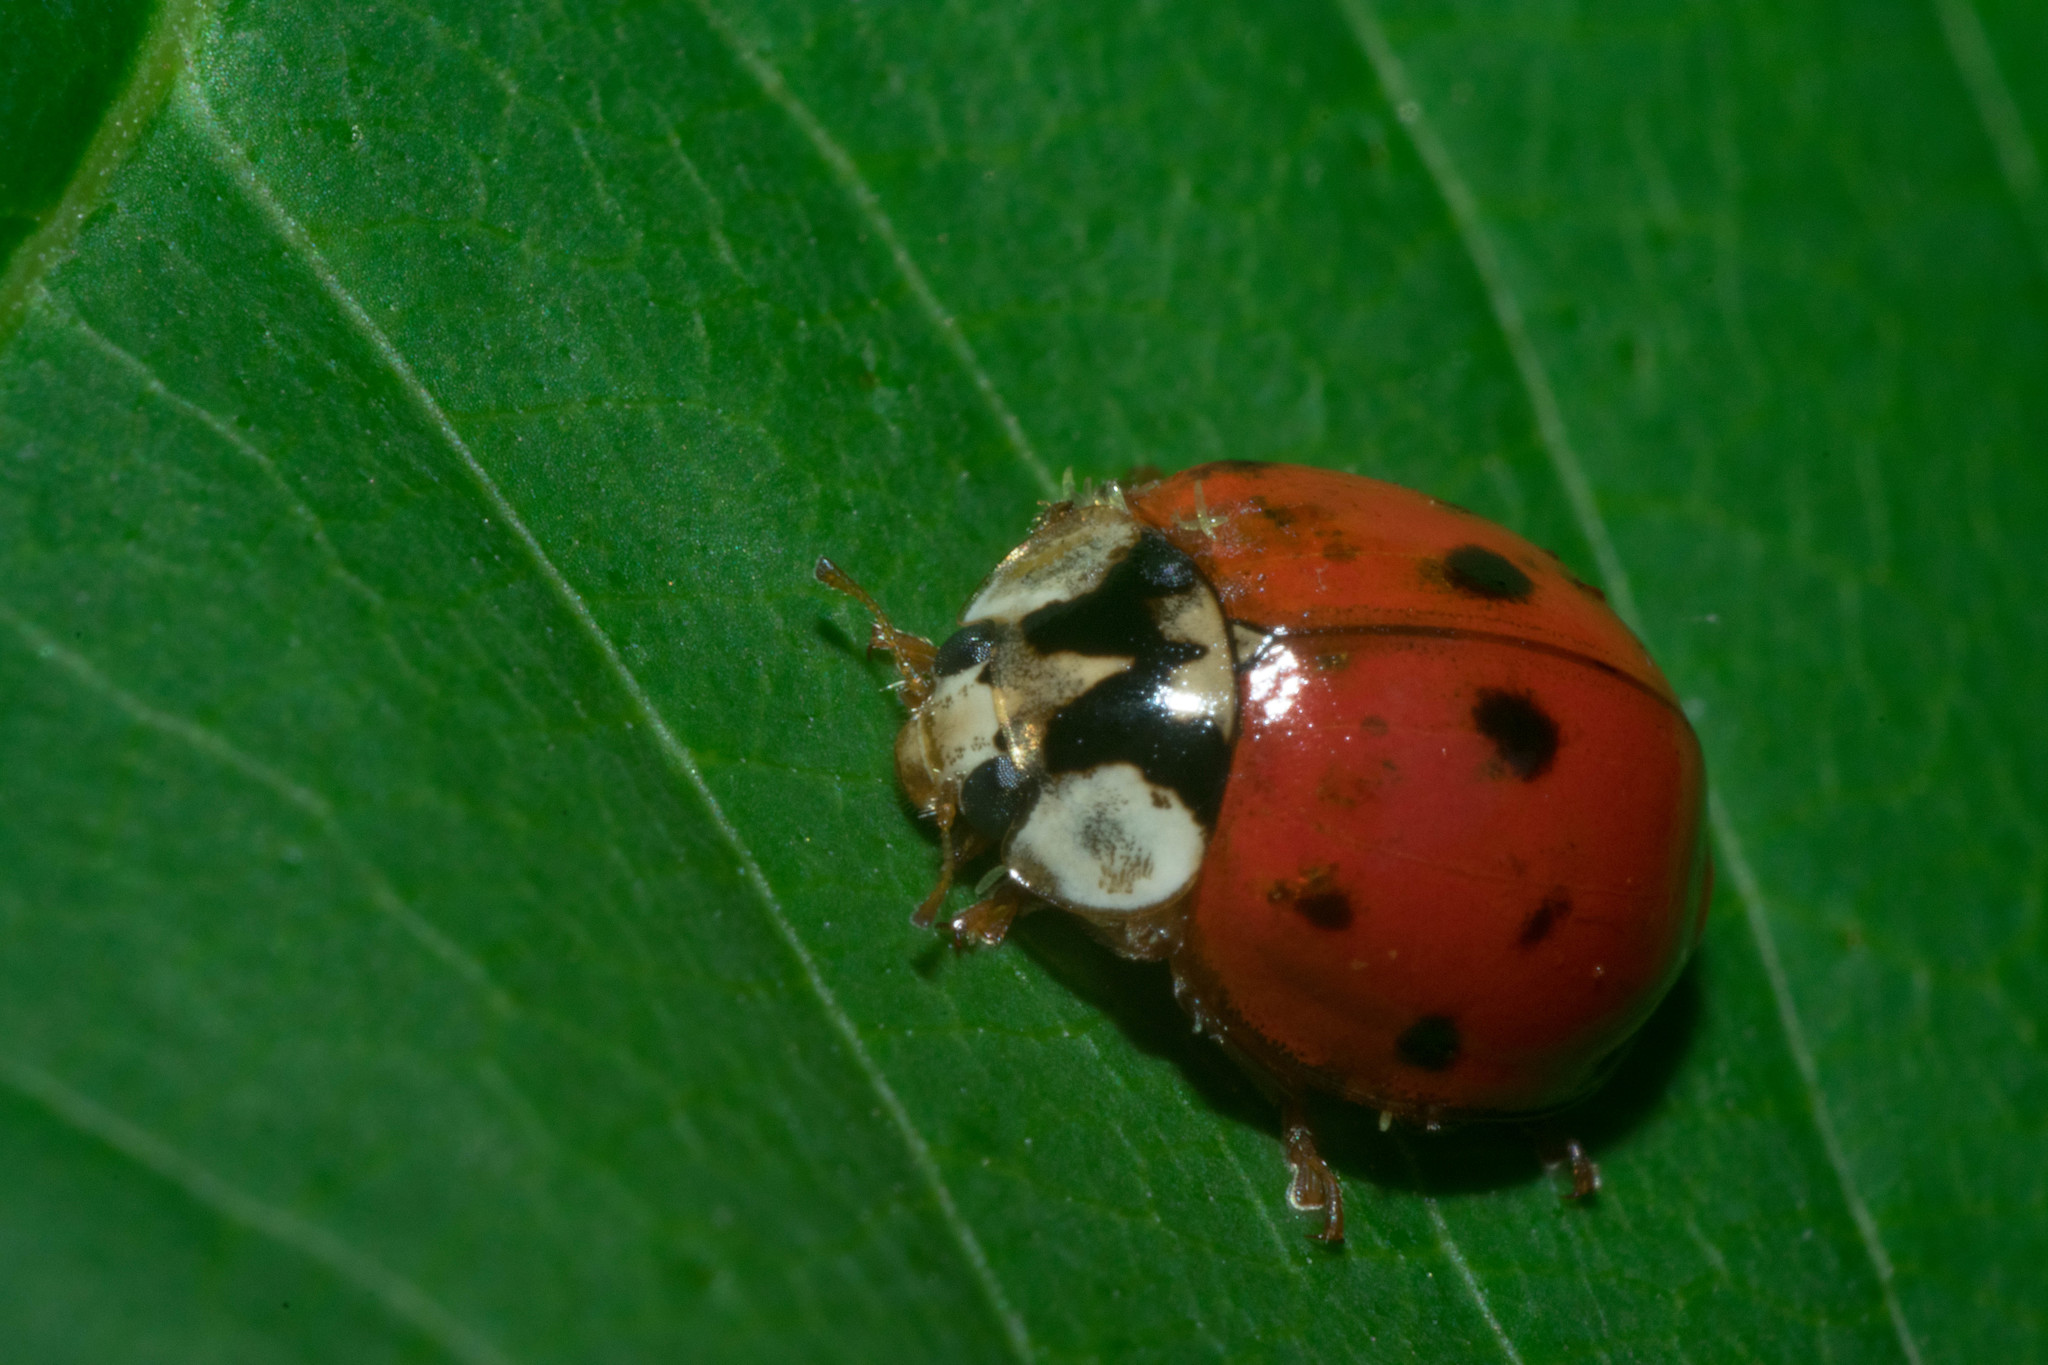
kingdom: Animalia
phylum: Arthropoda
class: Insecta
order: Coleoptera
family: Coccinellidae
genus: Harmonia
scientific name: Harmonia axyridis
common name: Harlequin ladybird
